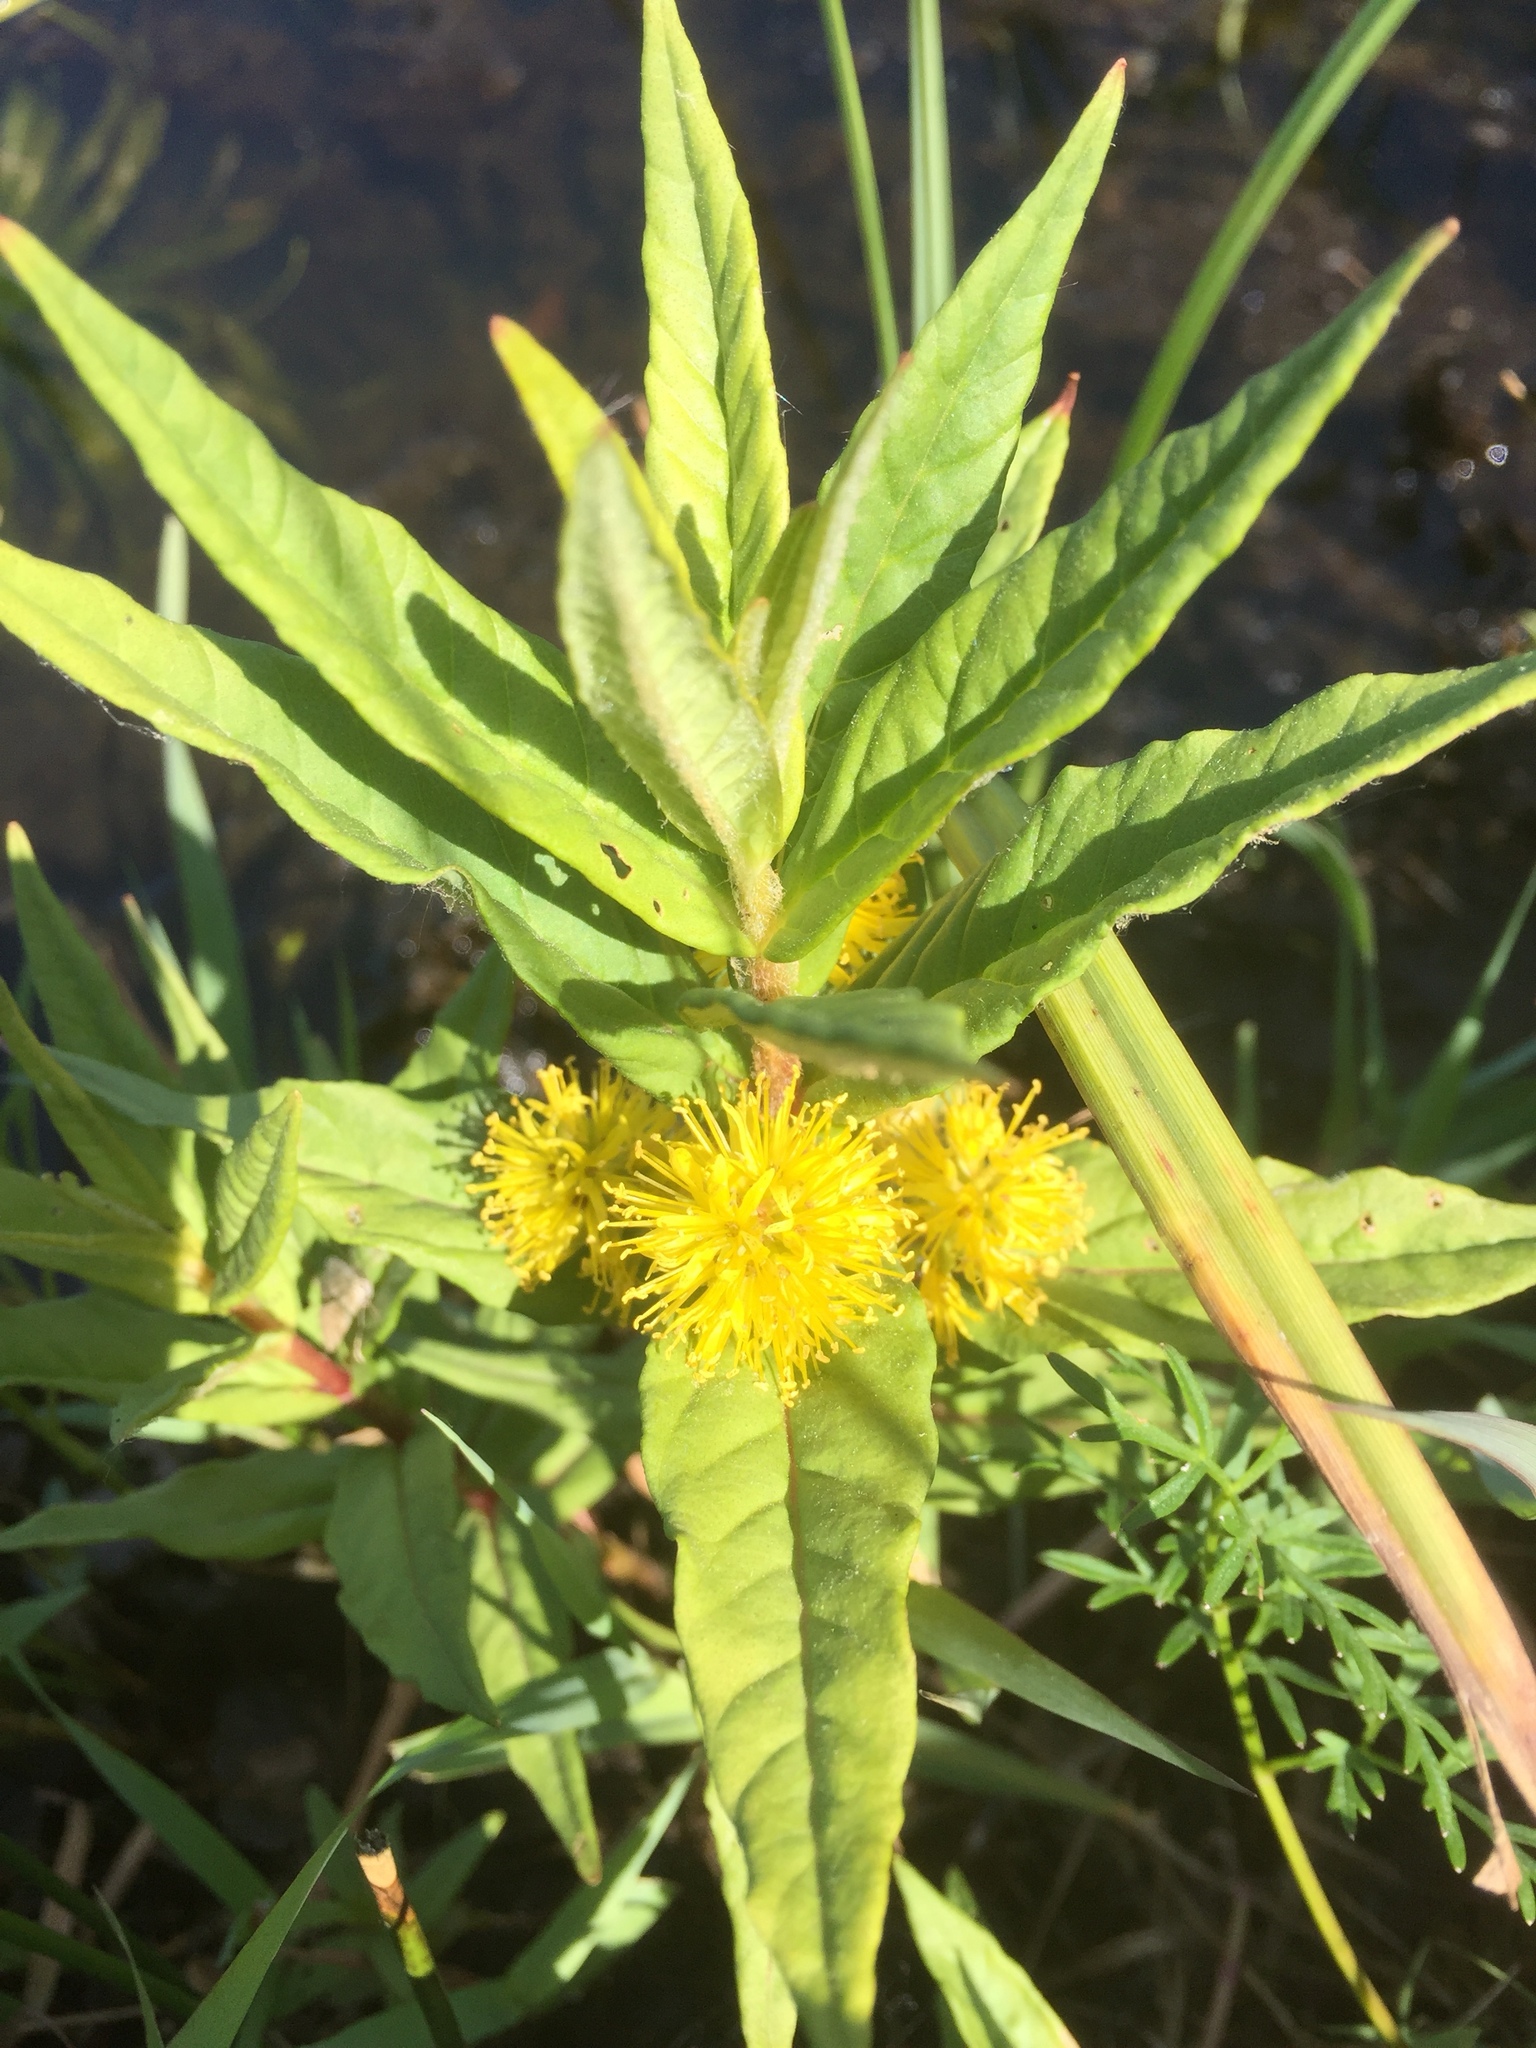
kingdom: Plantae
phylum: Tracheophyta
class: Magnoliopsida
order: Ericales
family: Primulaceae
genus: Lysimachia
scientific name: Lysimachia thyrsiflora
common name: Tufted loosestrife
